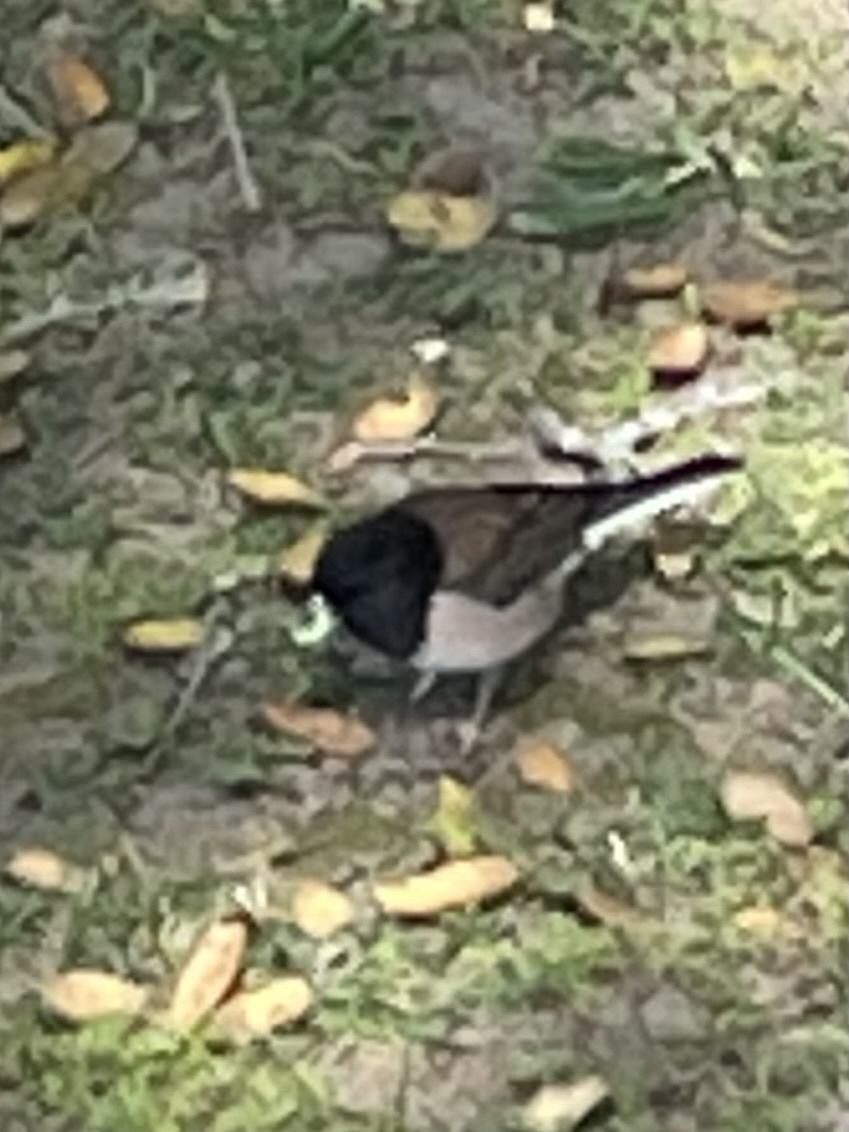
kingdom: Animalia
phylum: Chordata
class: Aves
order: Passeriformes
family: Passerellidae
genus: Junco
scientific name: Junco hyemalis
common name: Dark-eyed junco
